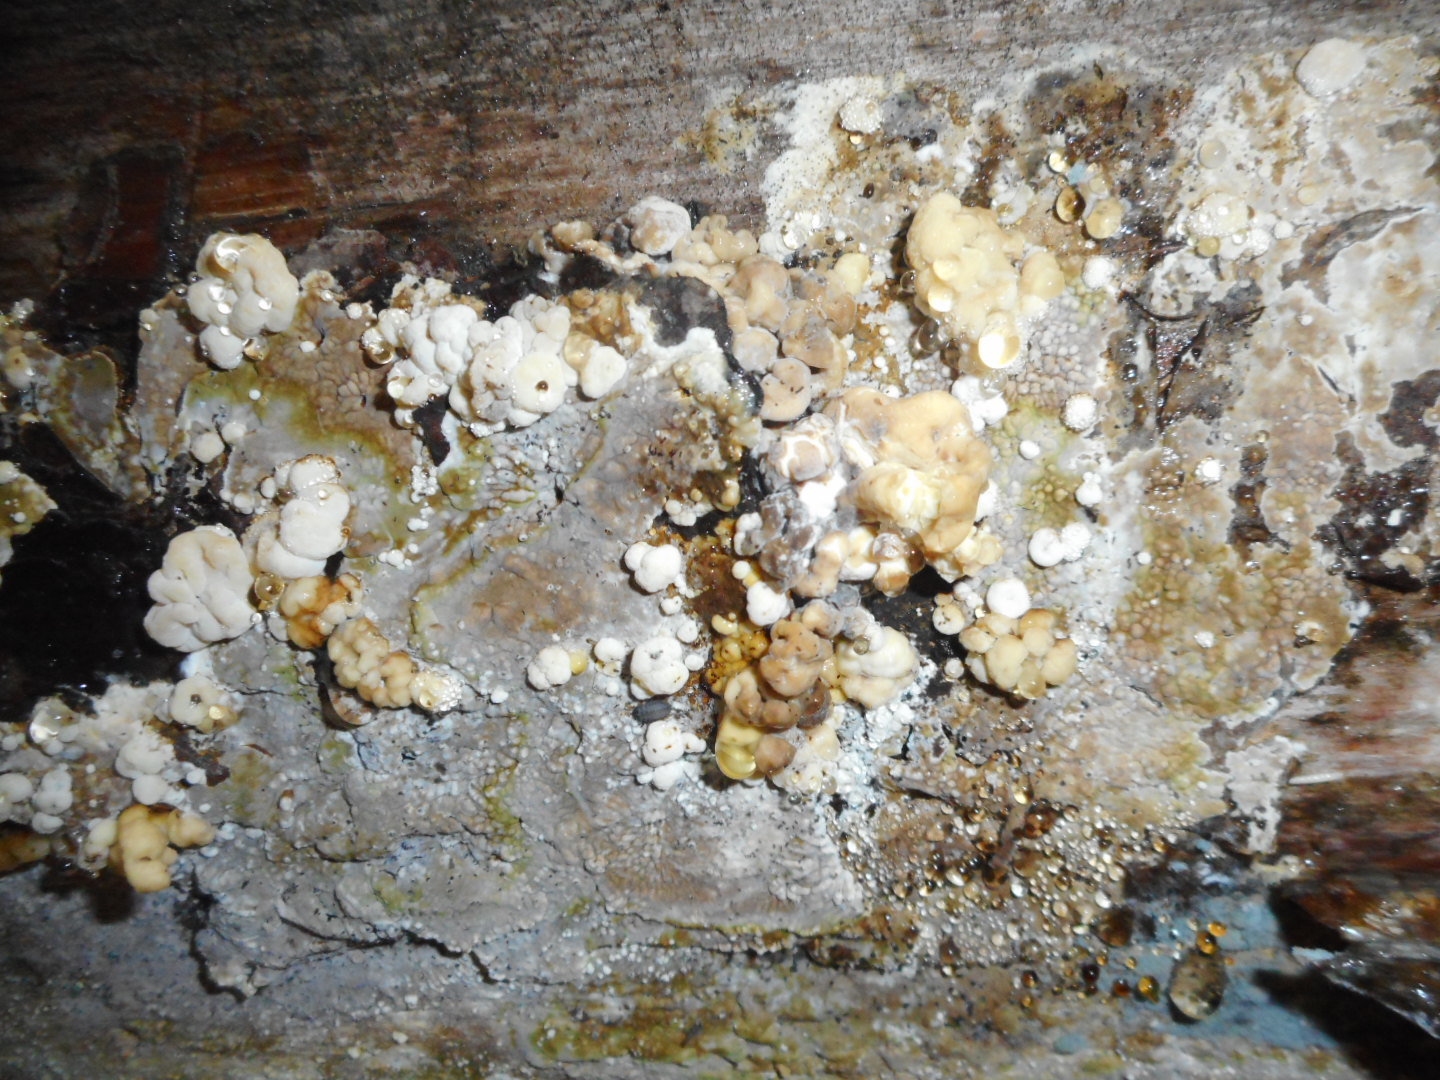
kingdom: Fungi
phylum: Ascomycota
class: Sordariomycetes
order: Xylariales
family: Hypoxylaceae
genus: Nodulisporium
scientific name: Nodulisporium cecidiogenes
